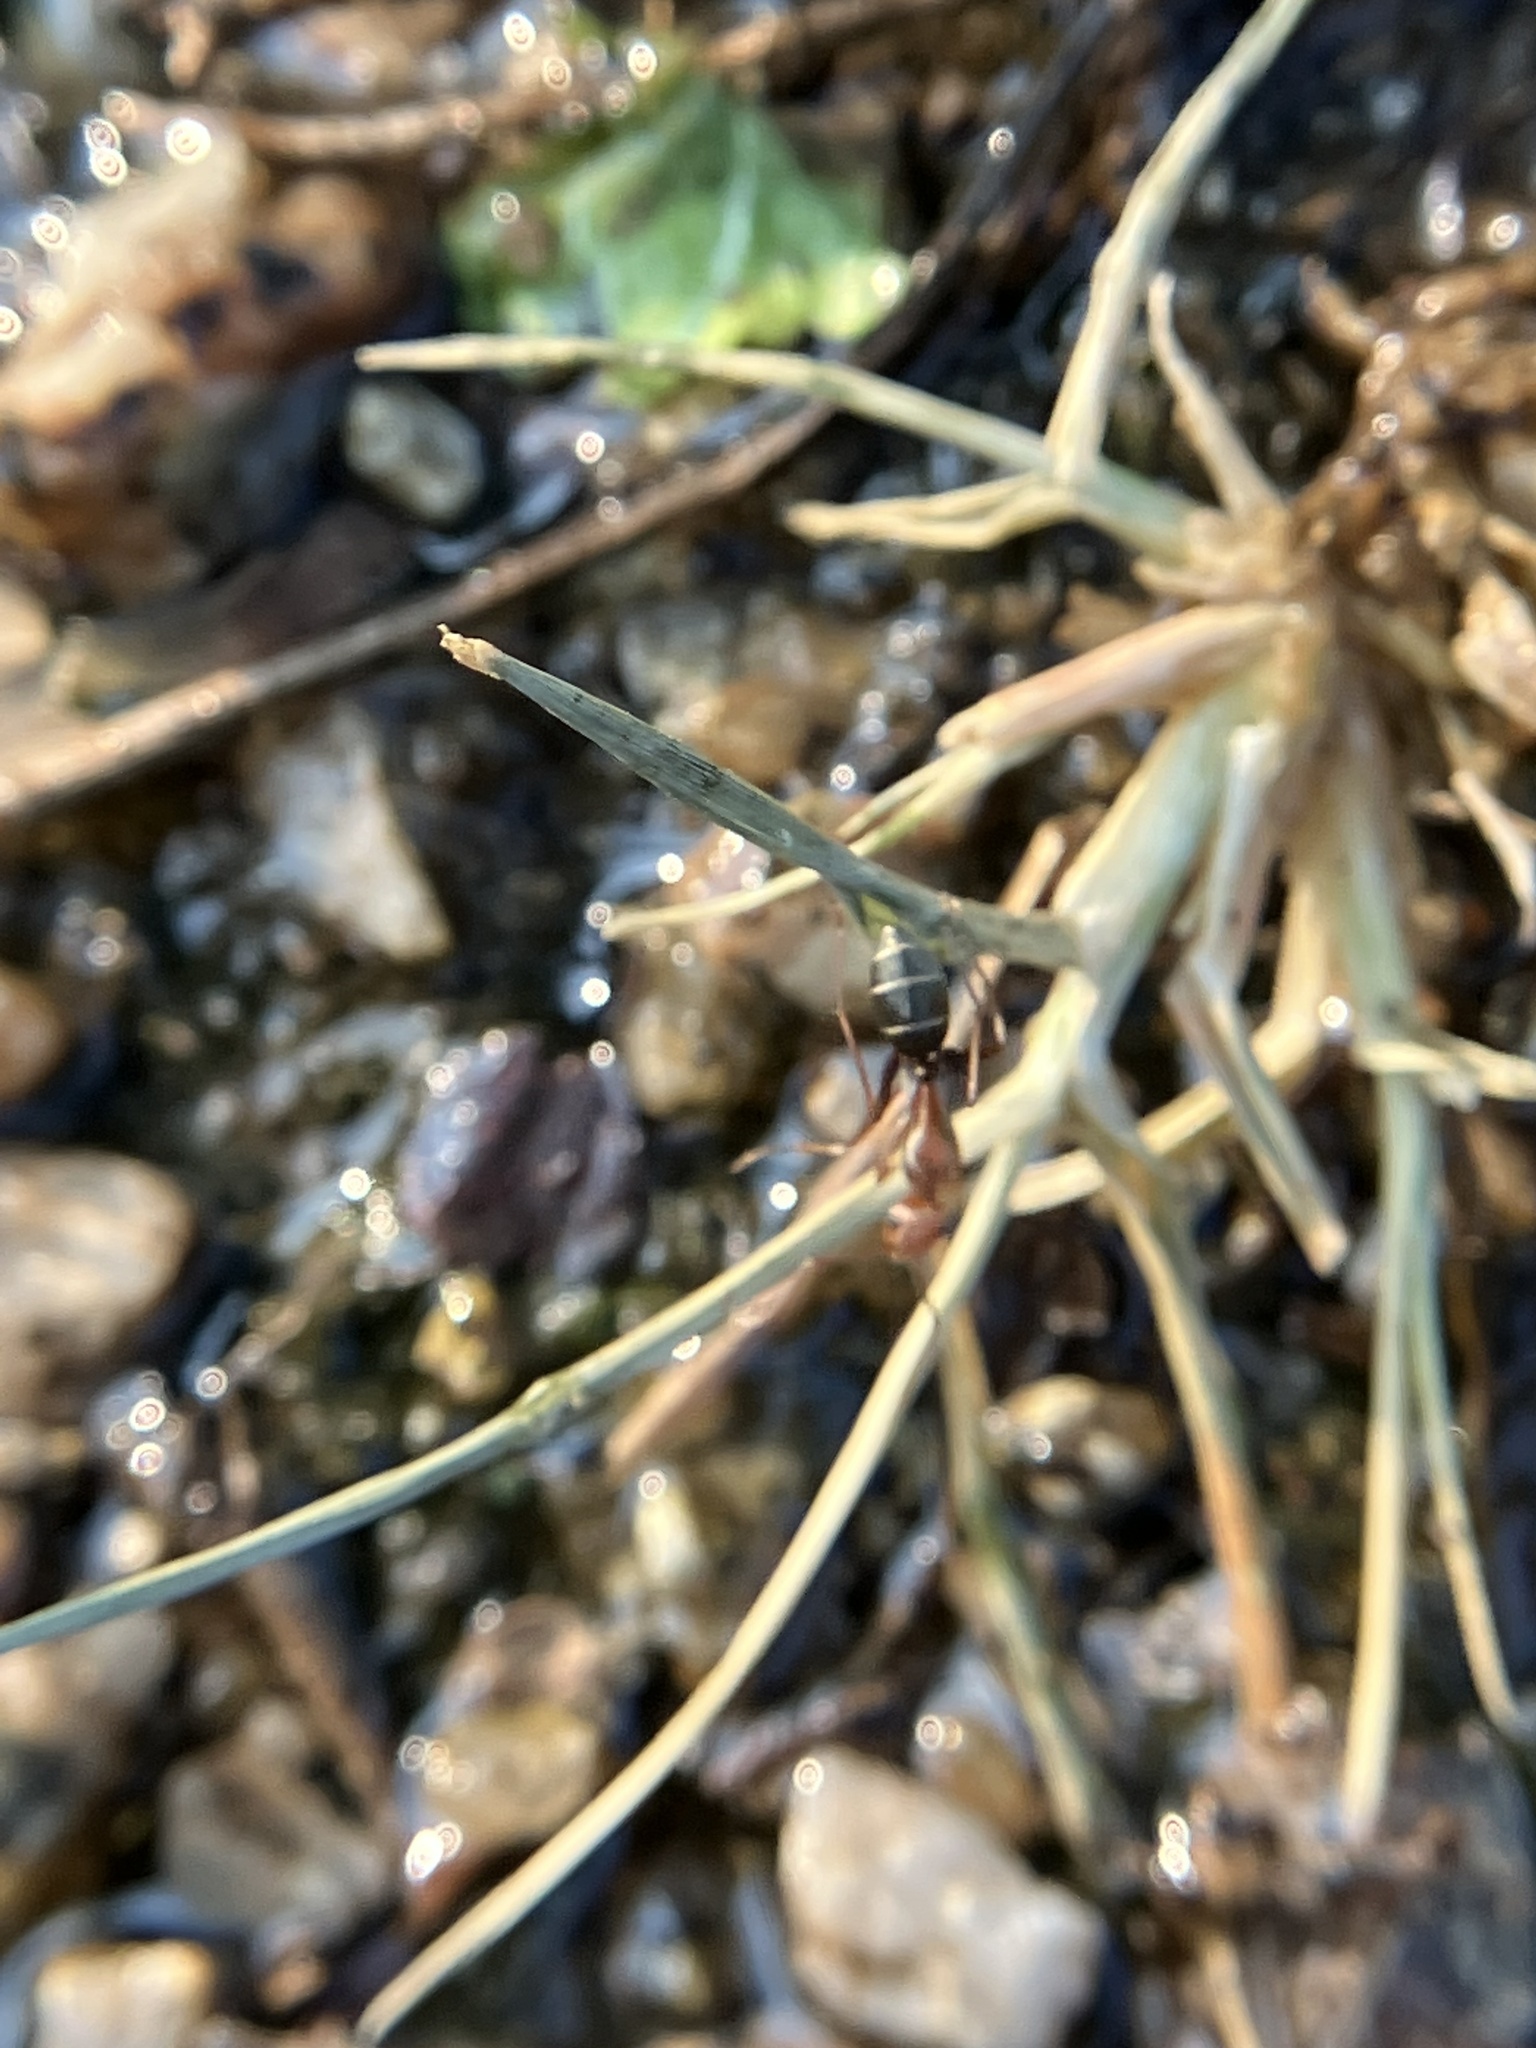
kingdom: Animalia
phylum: Arthropoda
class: Insecta
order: Hymenoptera
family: Formicidae
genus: Camponotus
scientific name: Camponotus rufoglaucus
